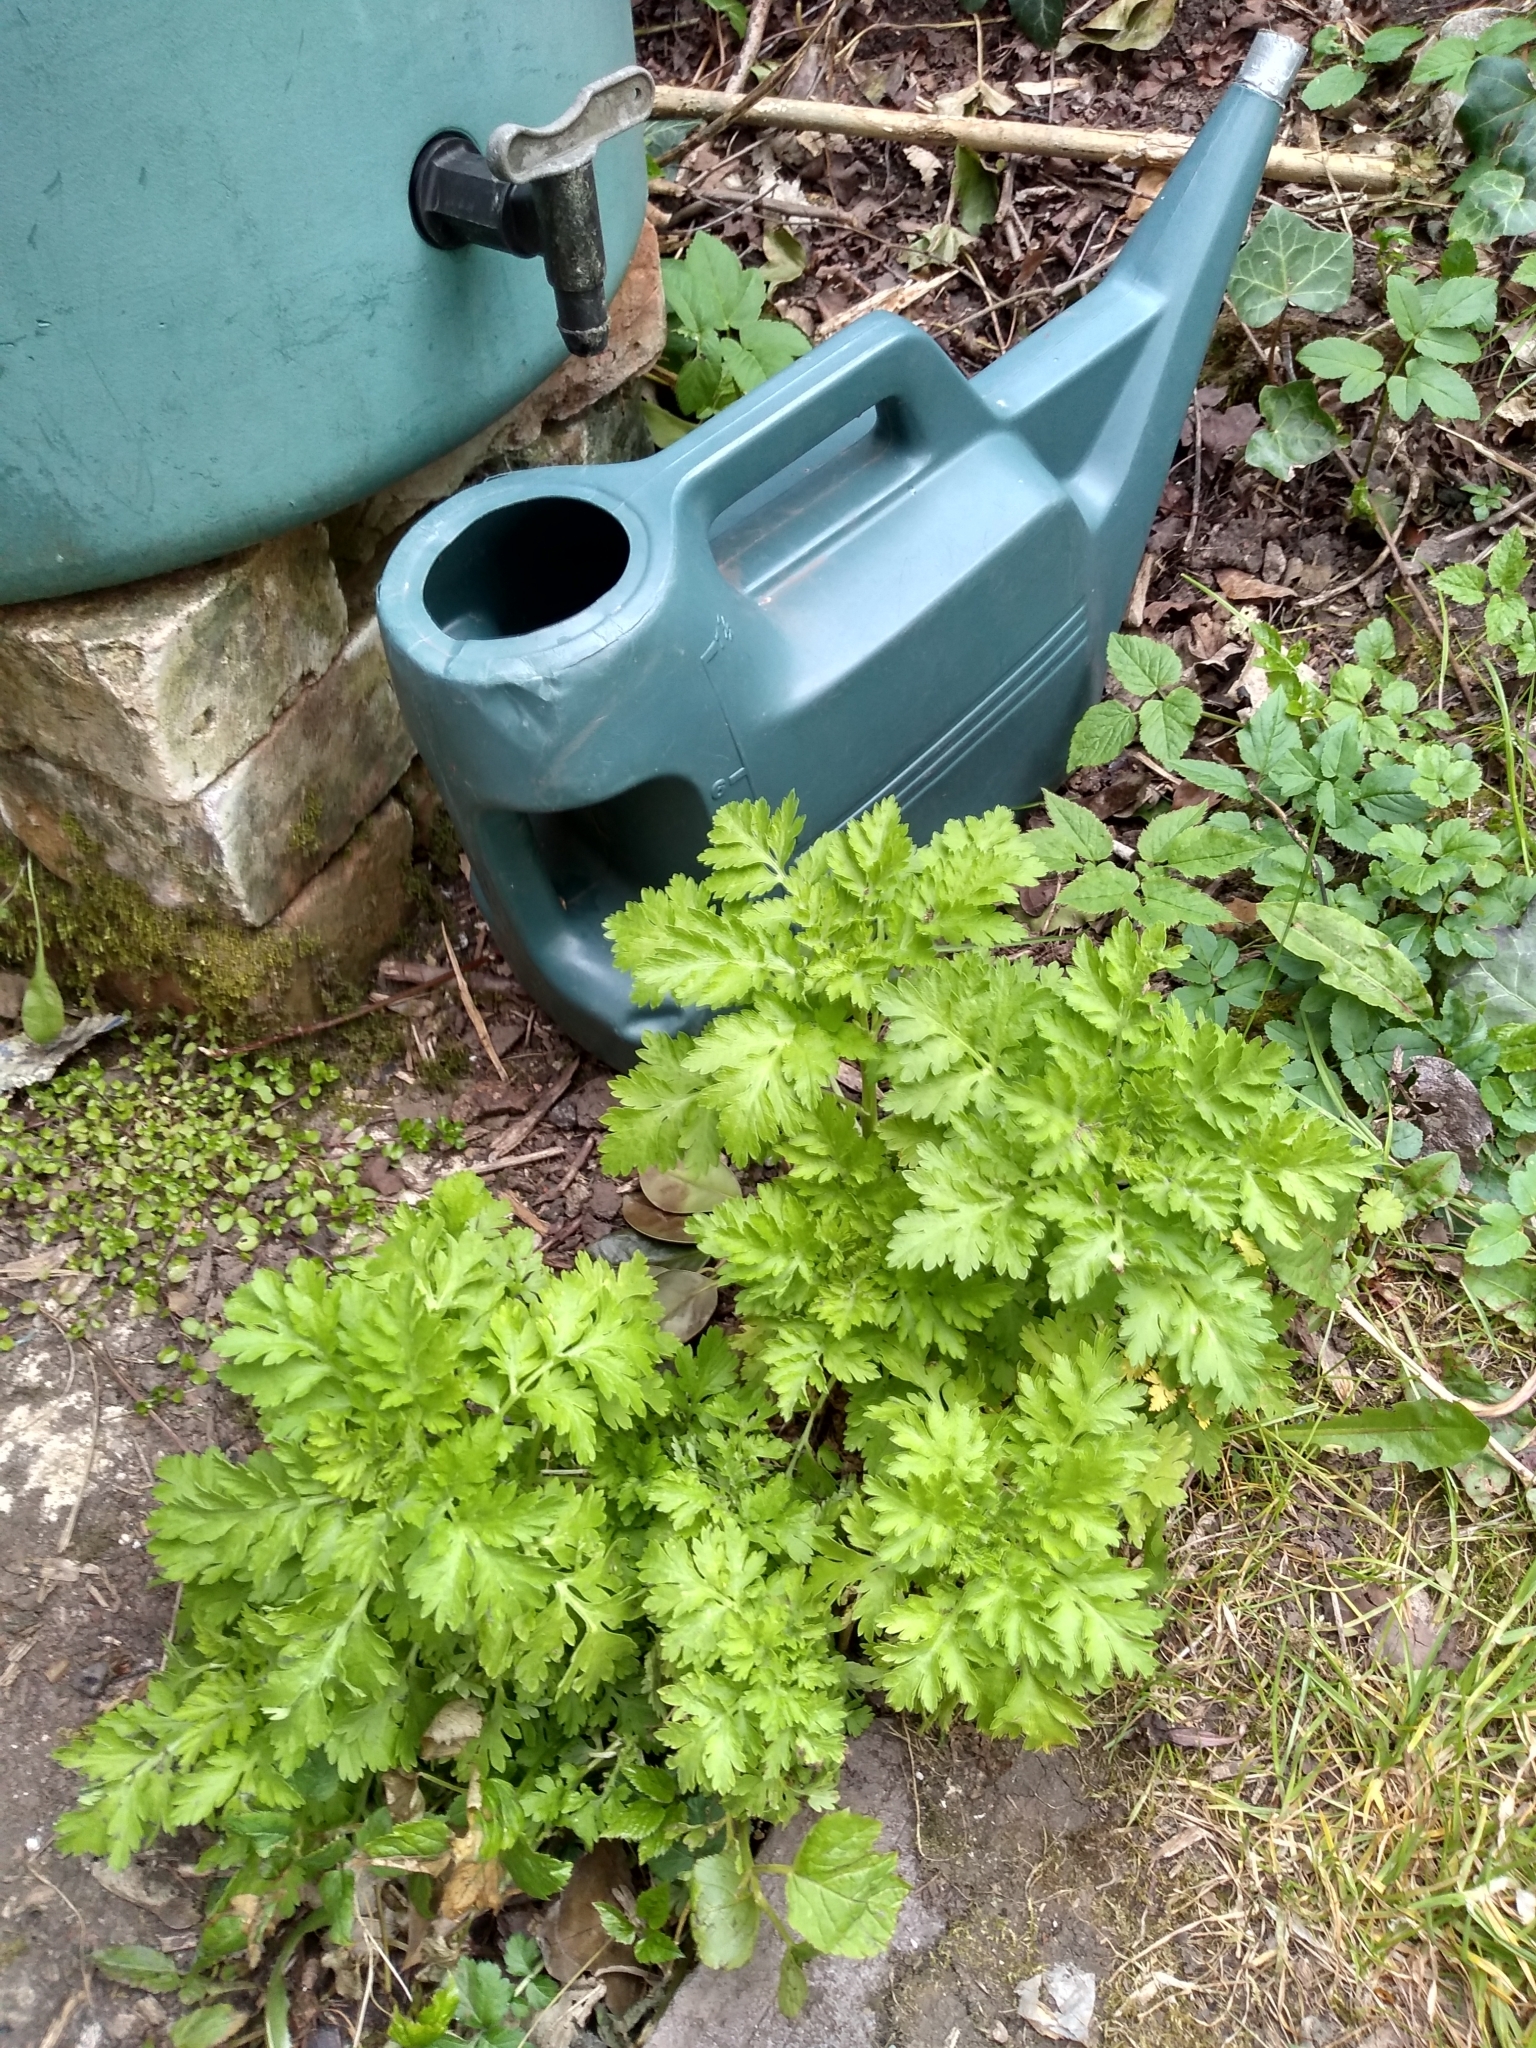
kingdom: Plantae
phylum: Tracheophyta
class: Magnoliopsida
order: Asterales
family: Asteraceae
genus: Tanacetum
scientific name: Tanacetum parthenium
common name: Feverfew
